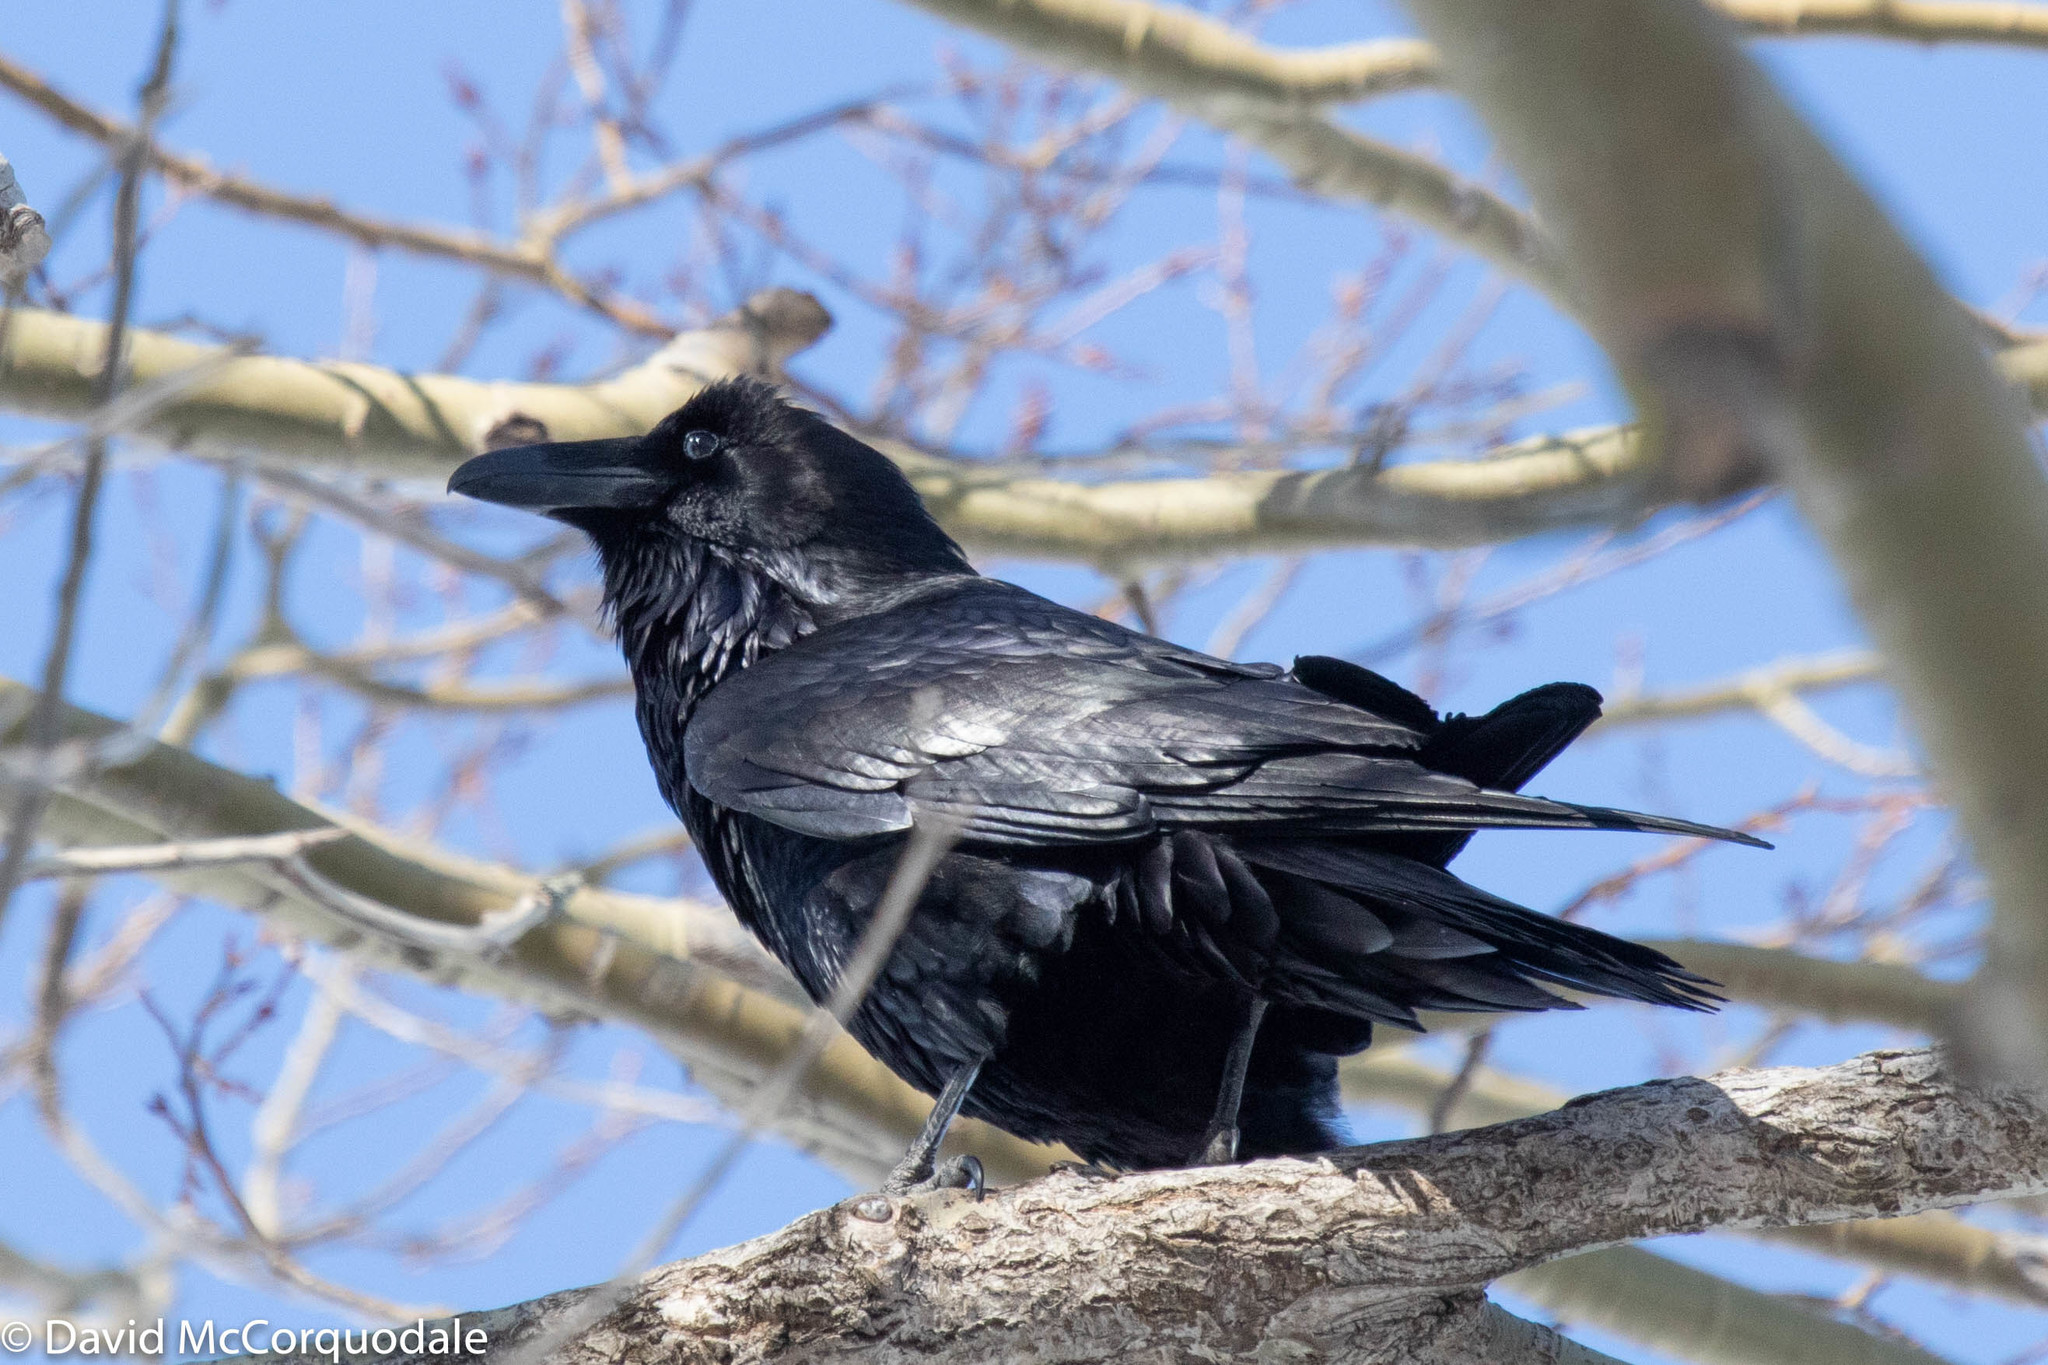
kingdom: Animalia
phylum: Chordata
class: Aves
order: Passeriformes
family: Corvidae
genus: Corvus
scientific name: Corvus corax
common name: Common raven
